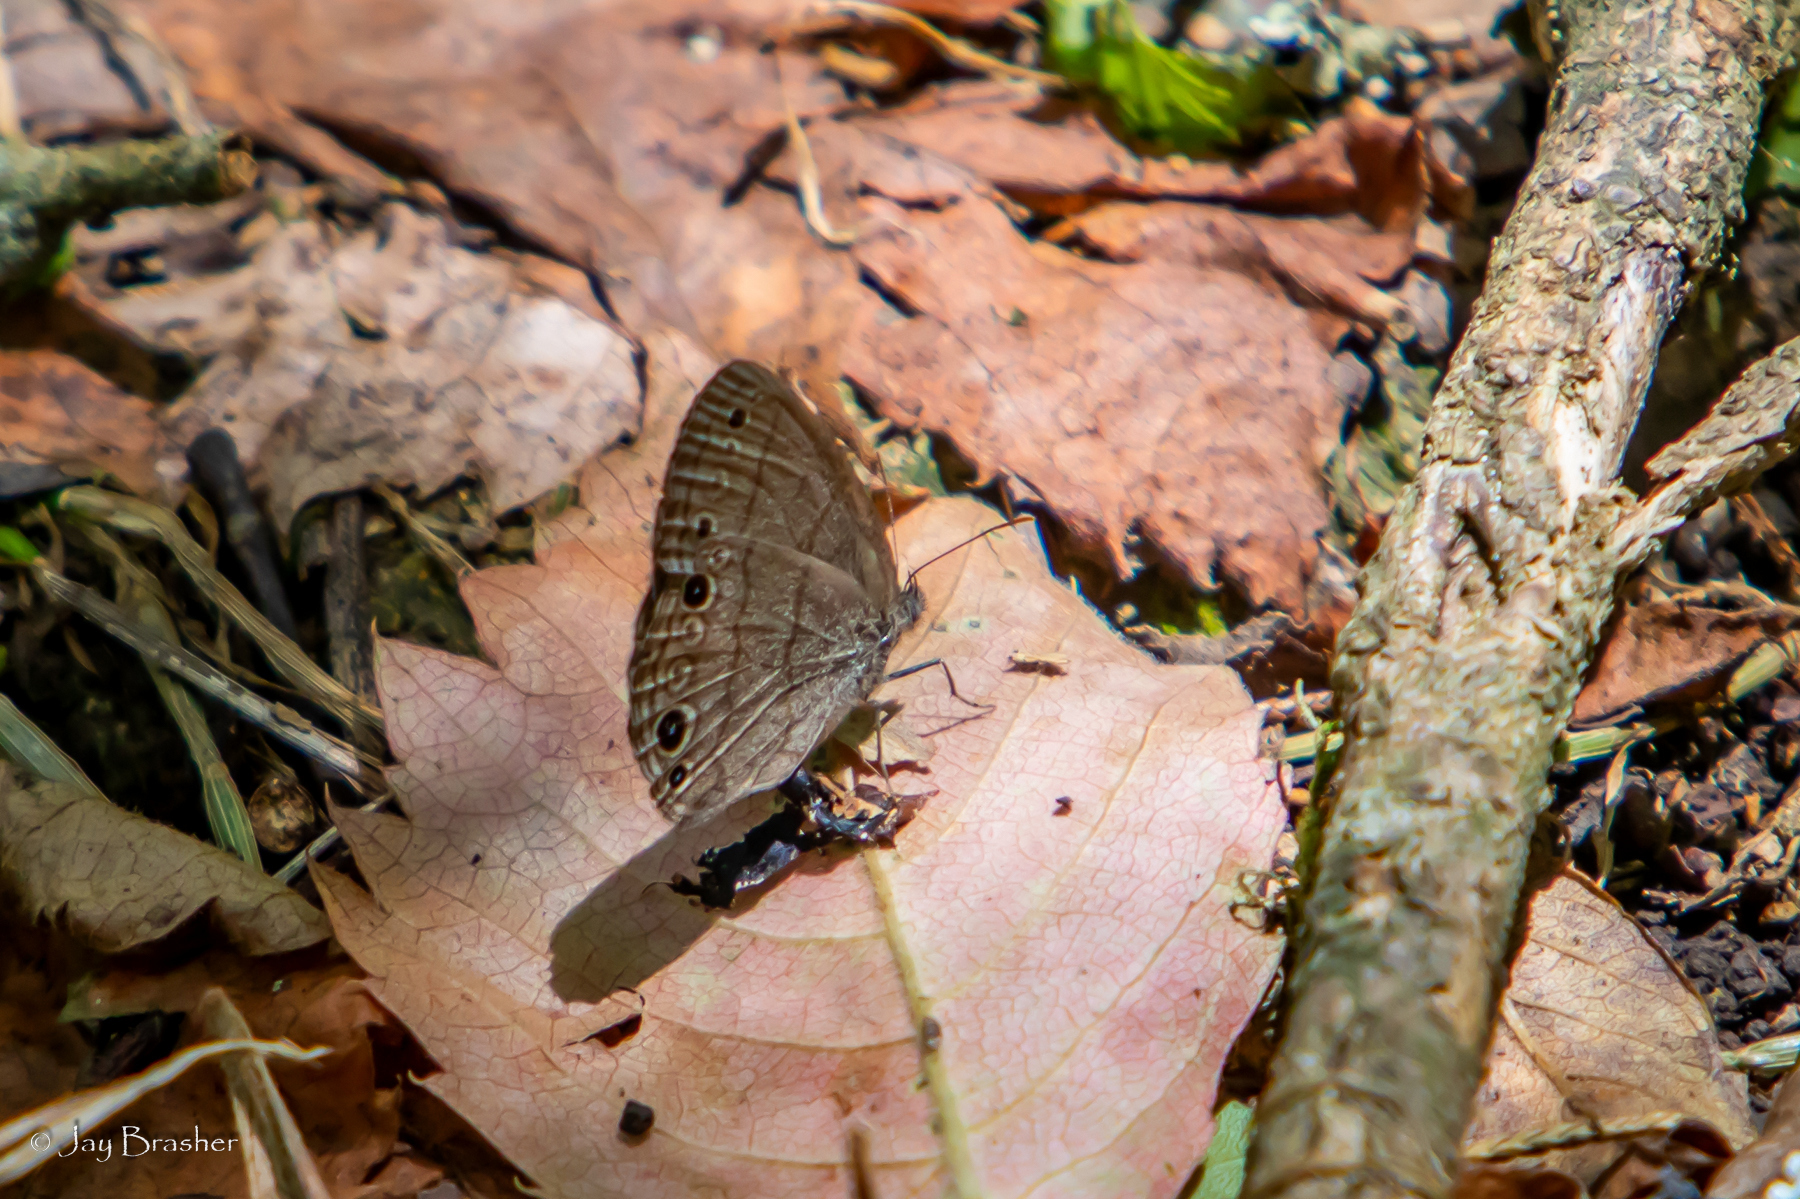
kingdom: Animalia
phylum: Arthropoda
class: Insecta
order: Lepidoptera
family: Nymphalidae
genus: Hermeuptychia
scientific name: Hermeuptychia hermes
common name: Hermes satyr
